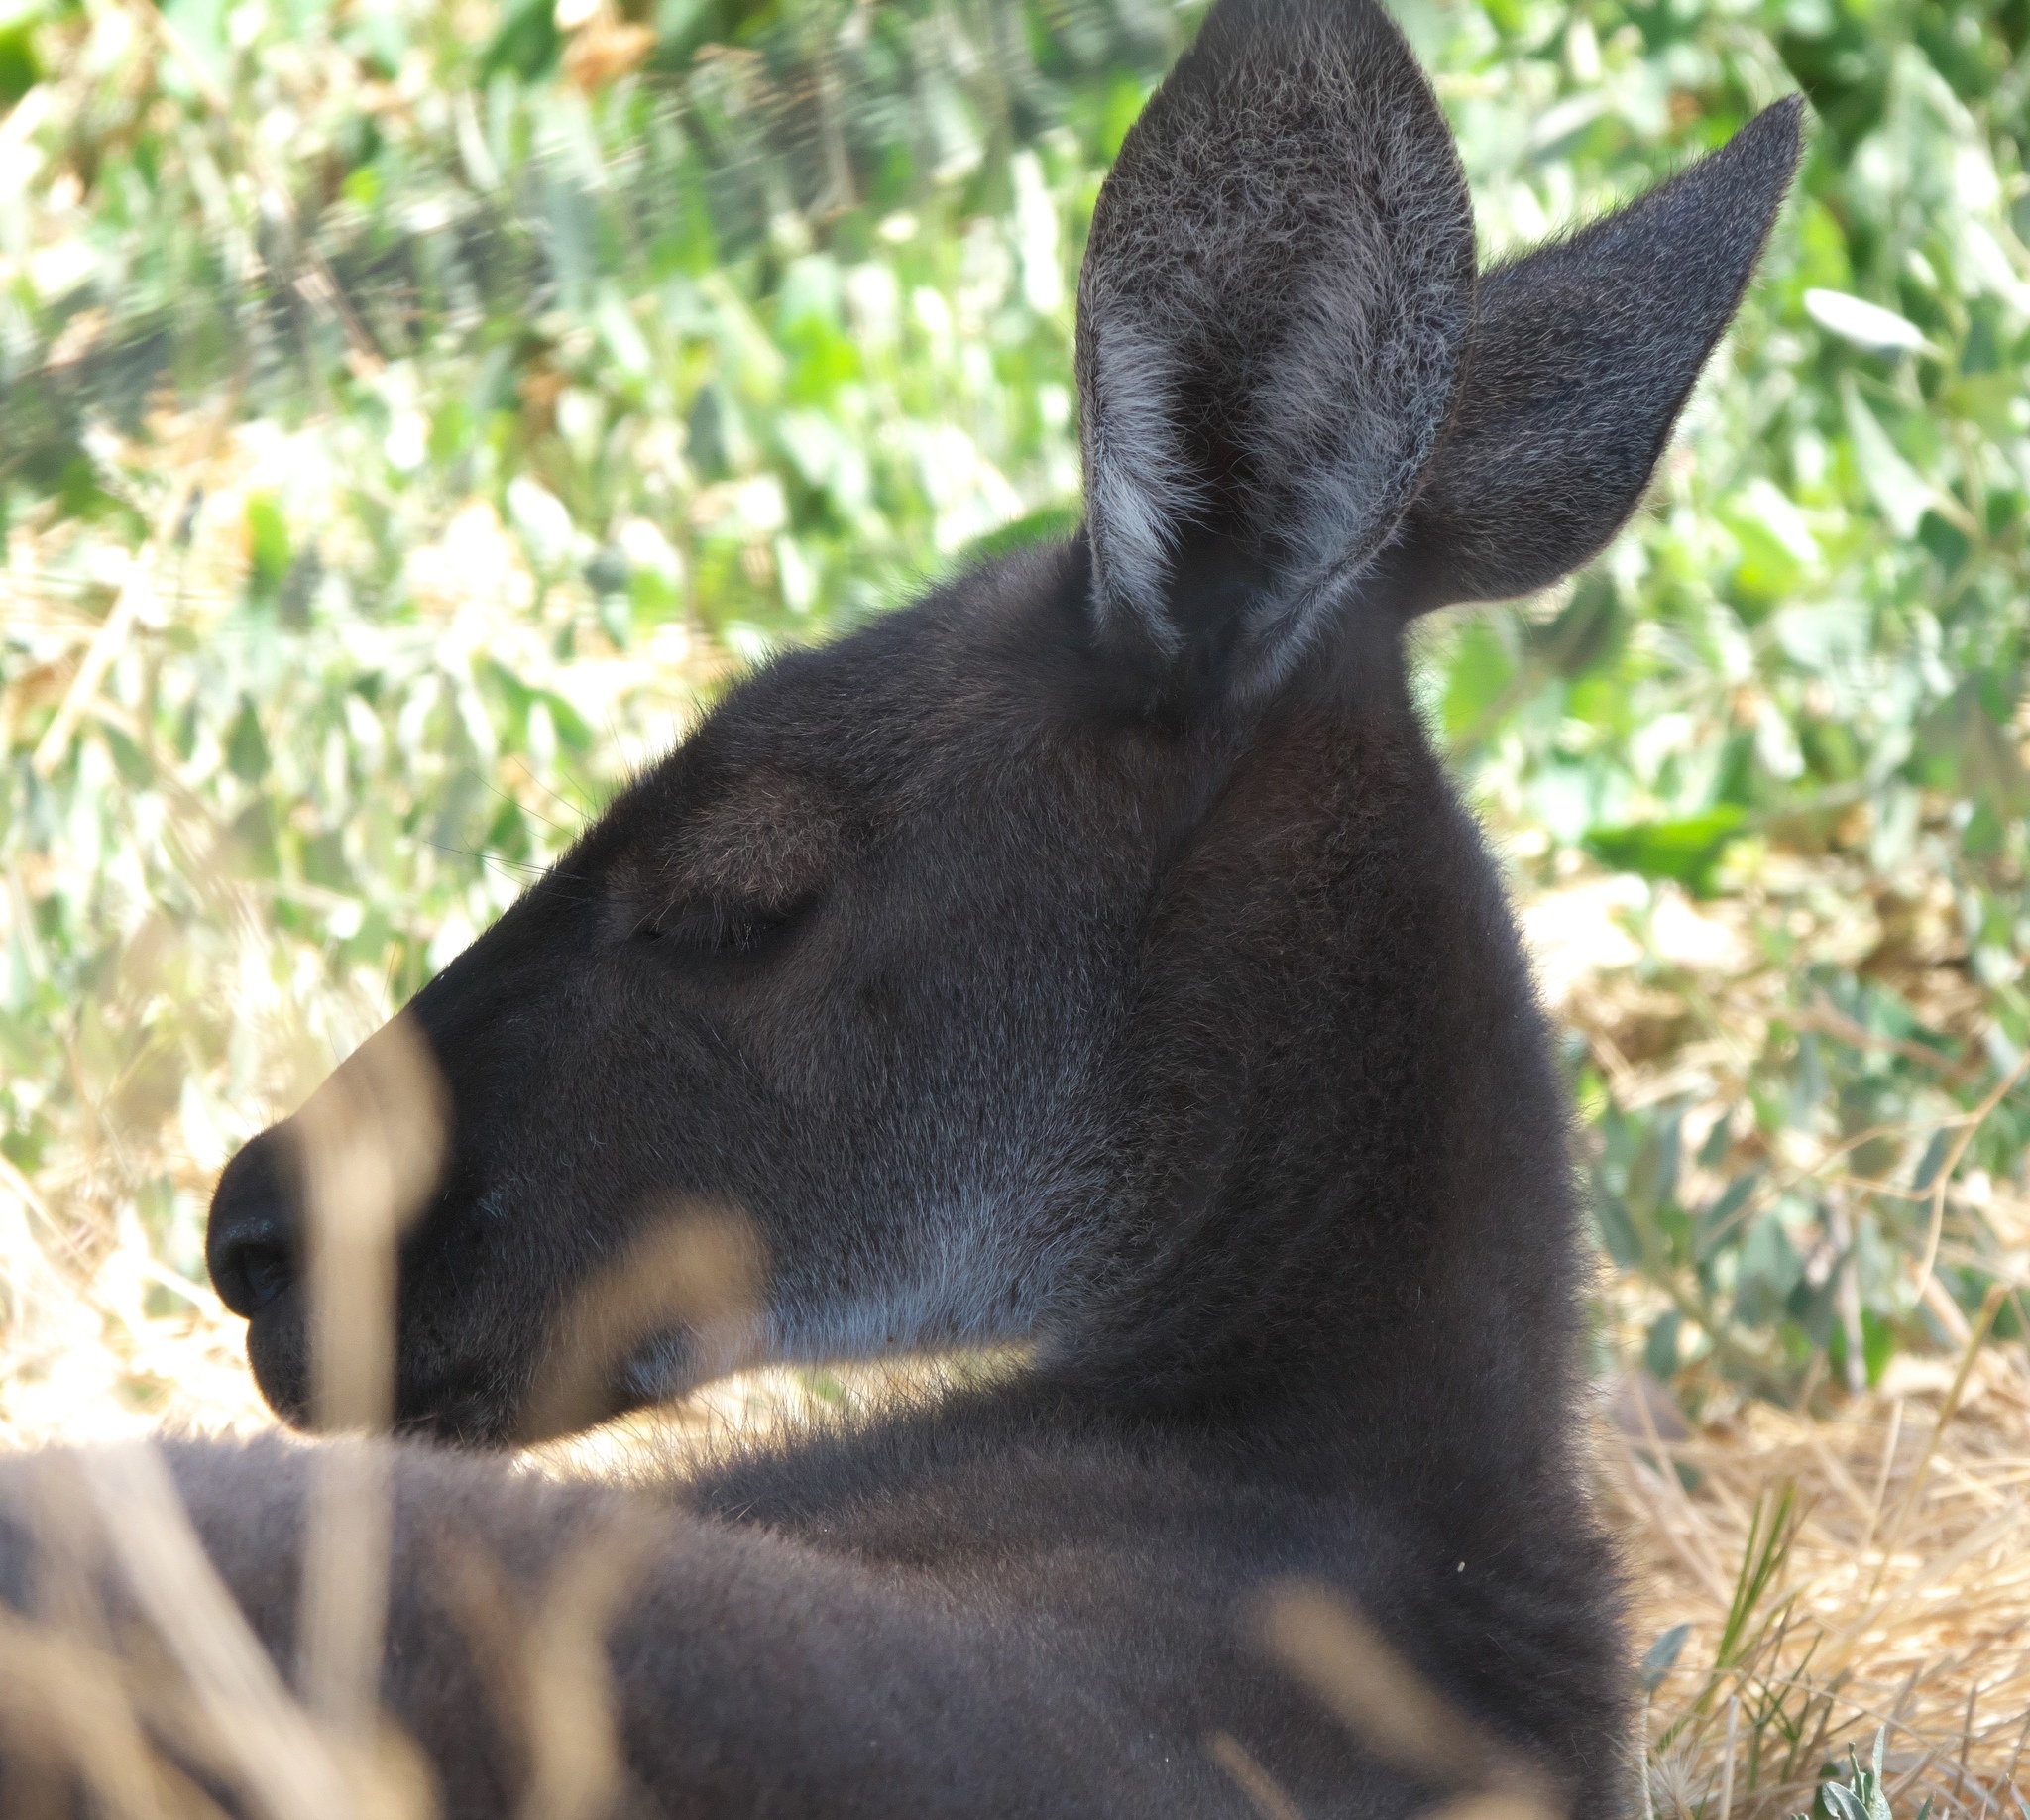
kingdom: Animalia
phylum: Chordata
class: Mammalia
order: Diprotodontia
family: Macropodidae
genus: Macropus
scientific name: Macropus fuliginosus
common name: Western grey kangaroo
